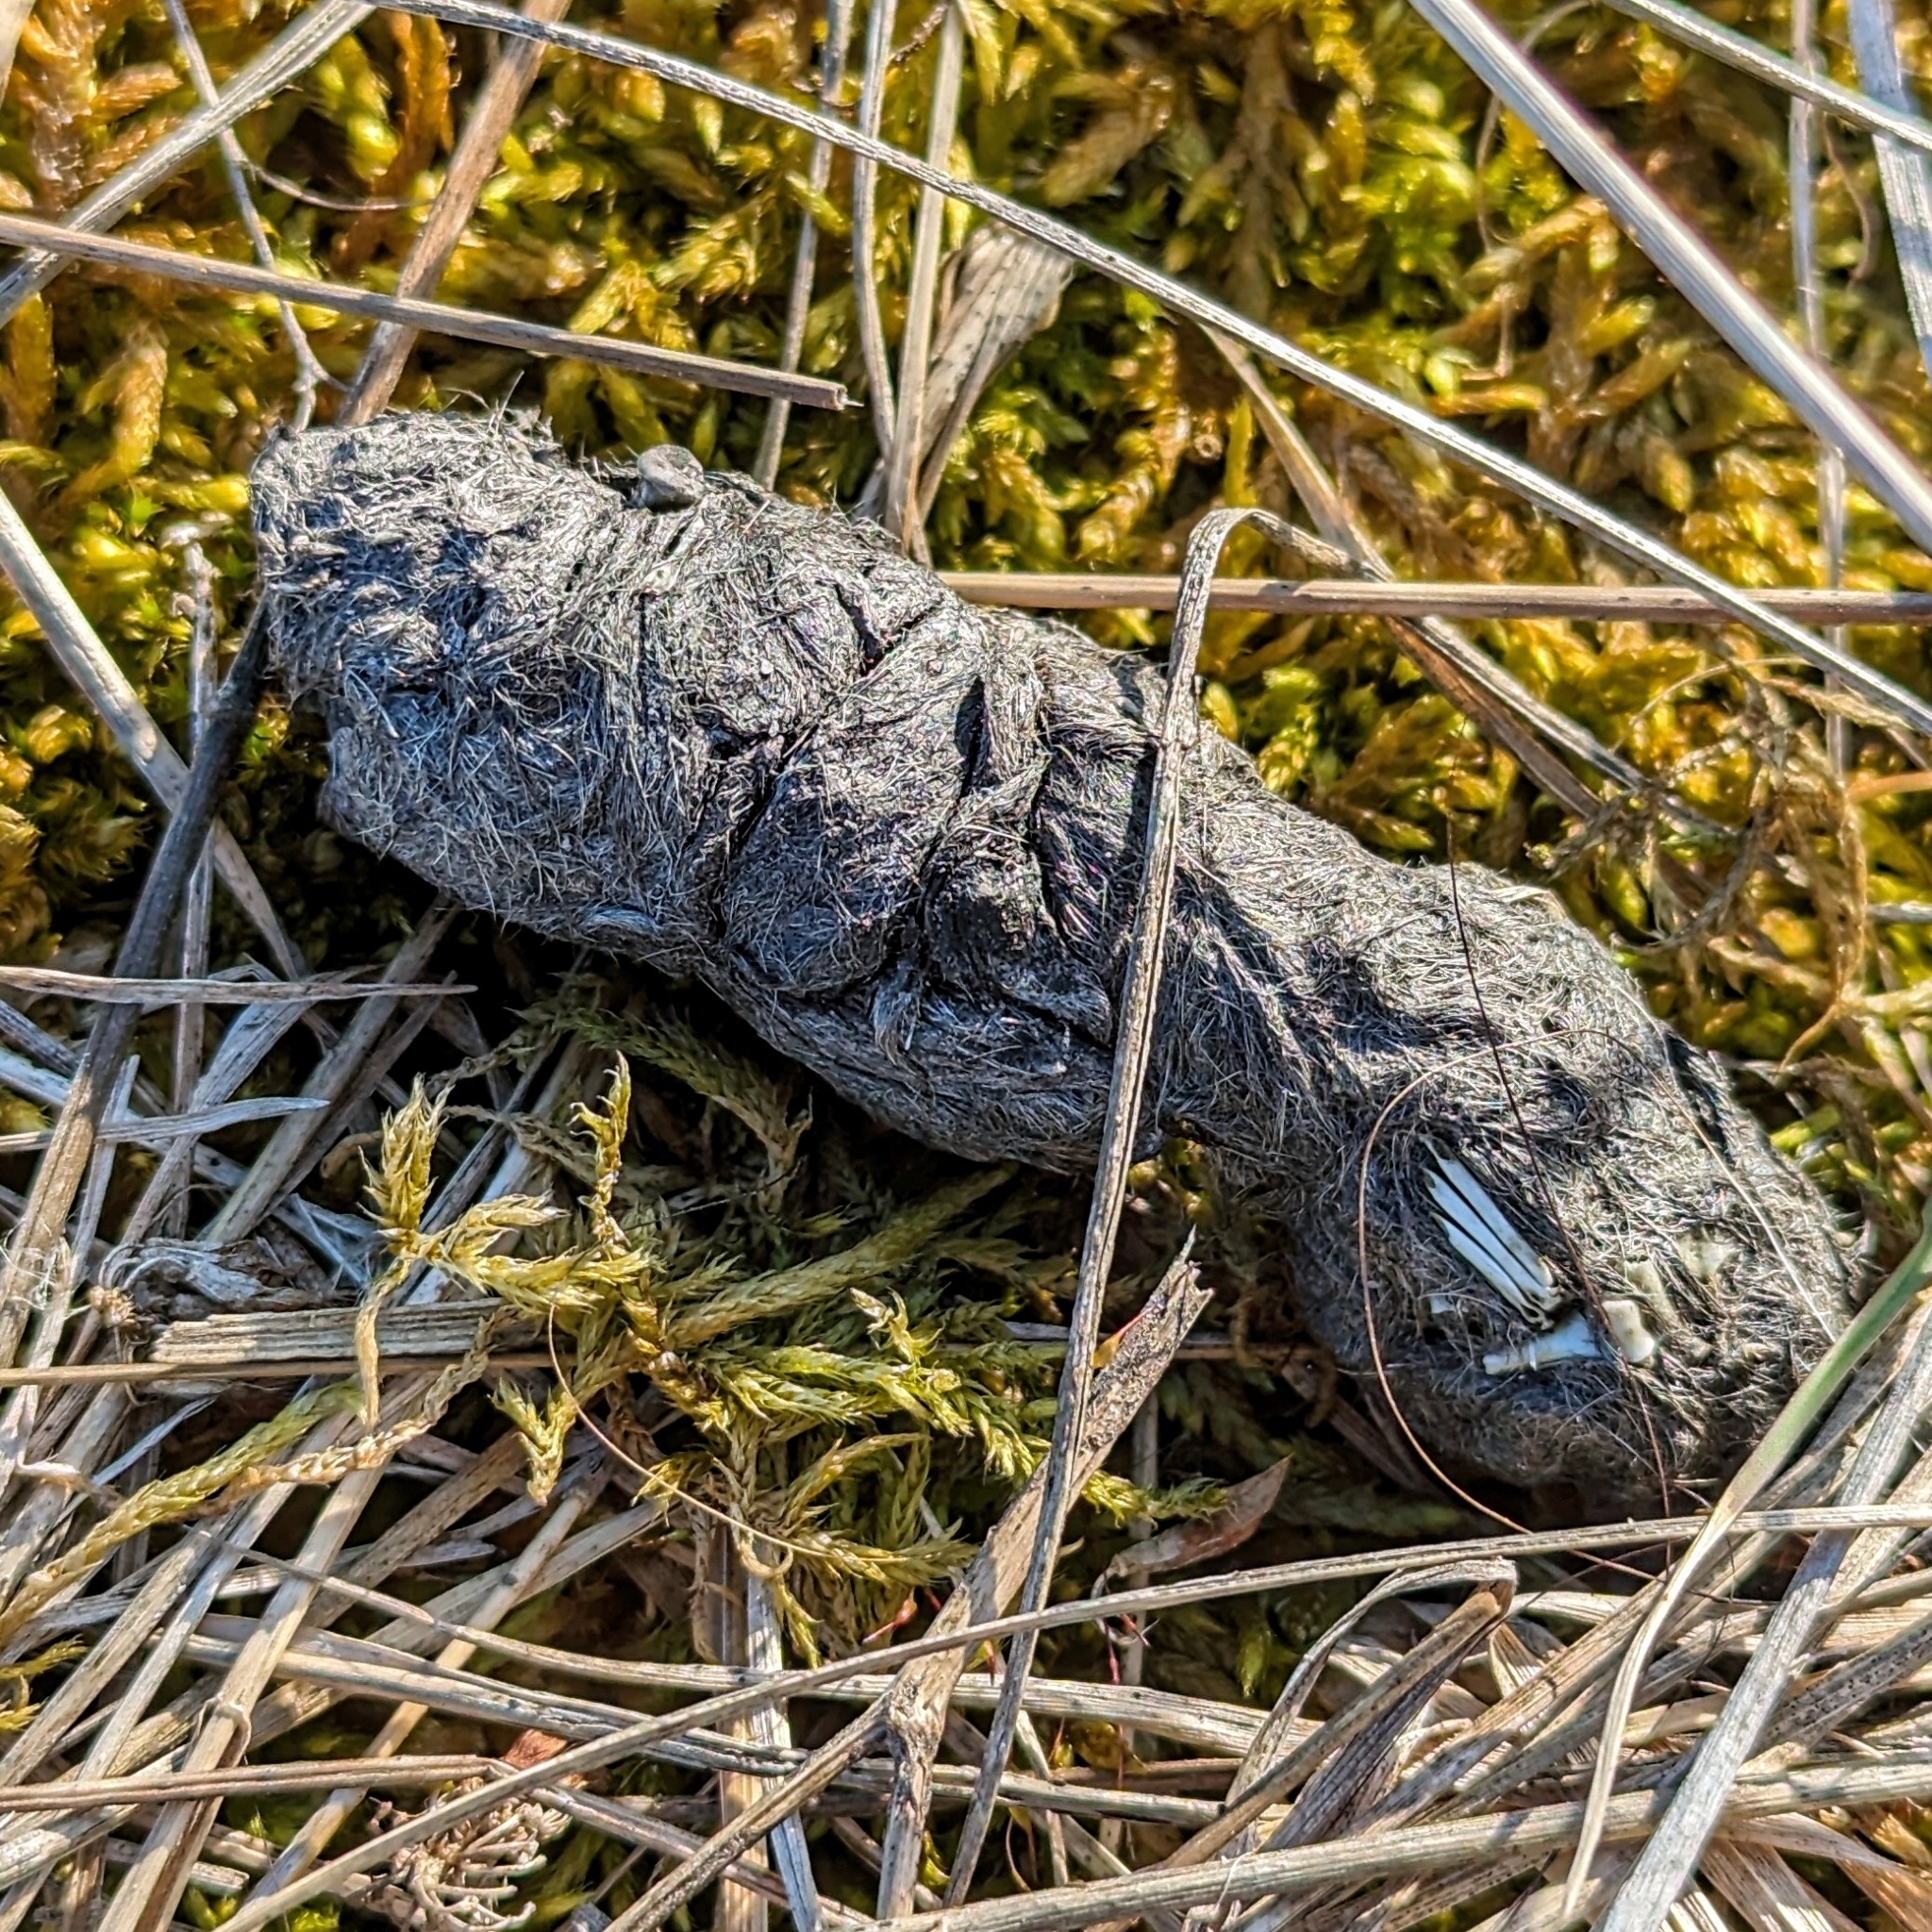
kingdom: Animalia
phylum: Chordata
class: Mammalia
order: Carnivora
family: Felidae
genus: Felis
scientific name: Felis catus
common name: Domestic cat
